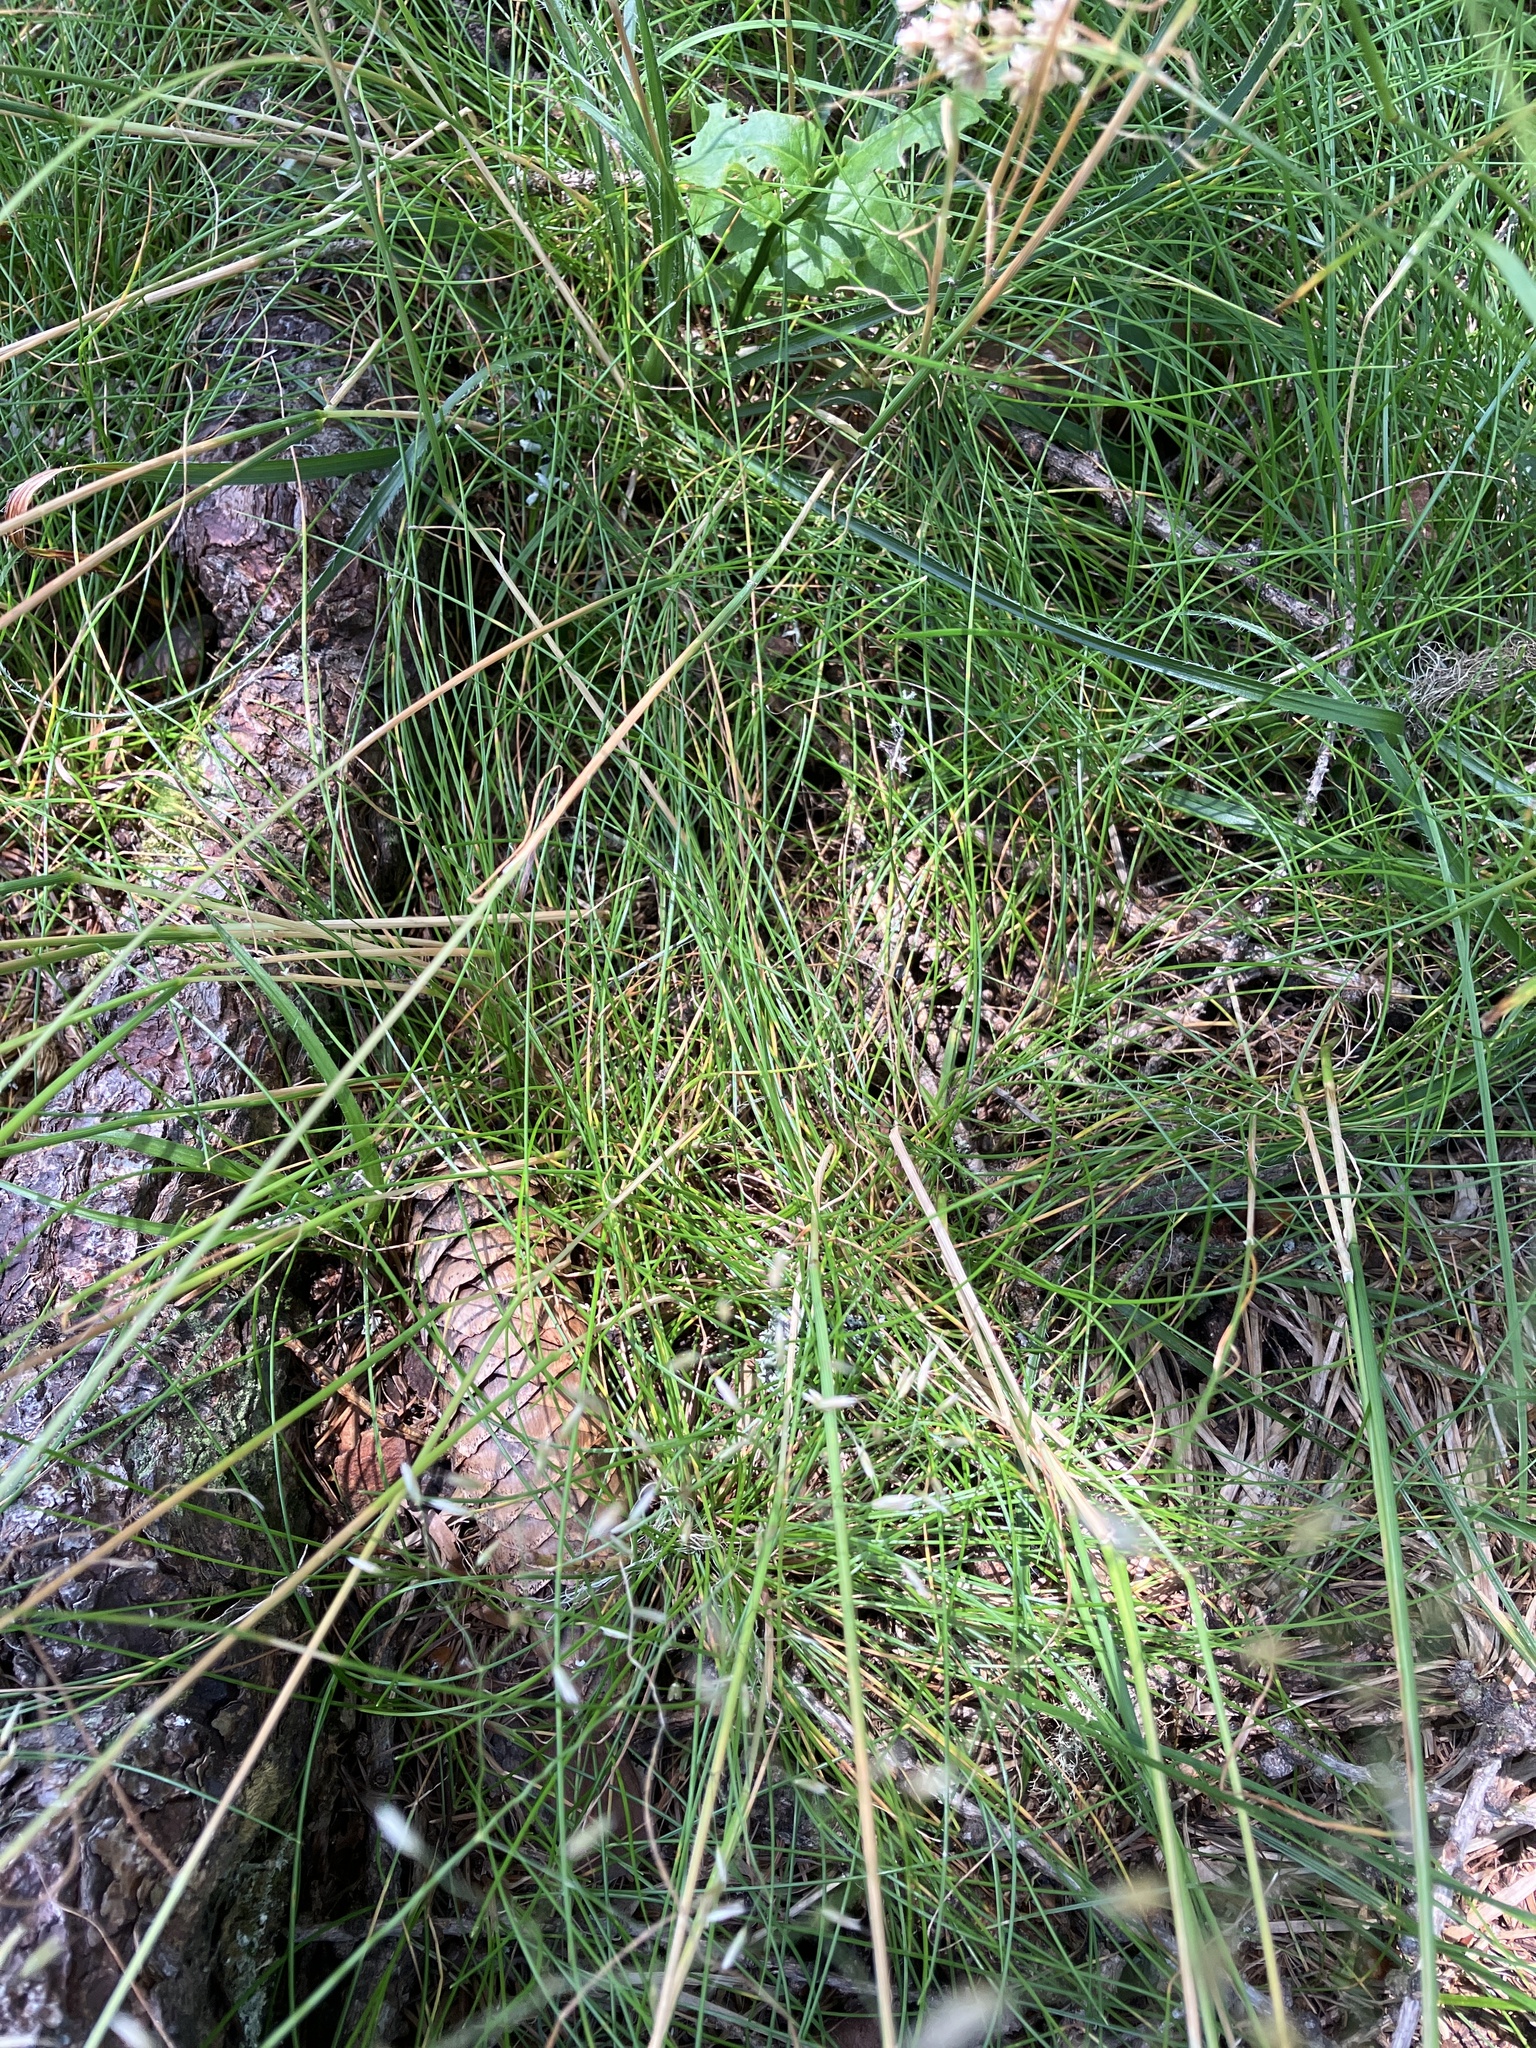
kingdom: Plantae
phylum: Tracheophyta
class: Liliopsida
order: Poales
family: Poaceae
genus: Avenella
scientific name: Avenella flexuosa
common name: Wavy hairgrass
